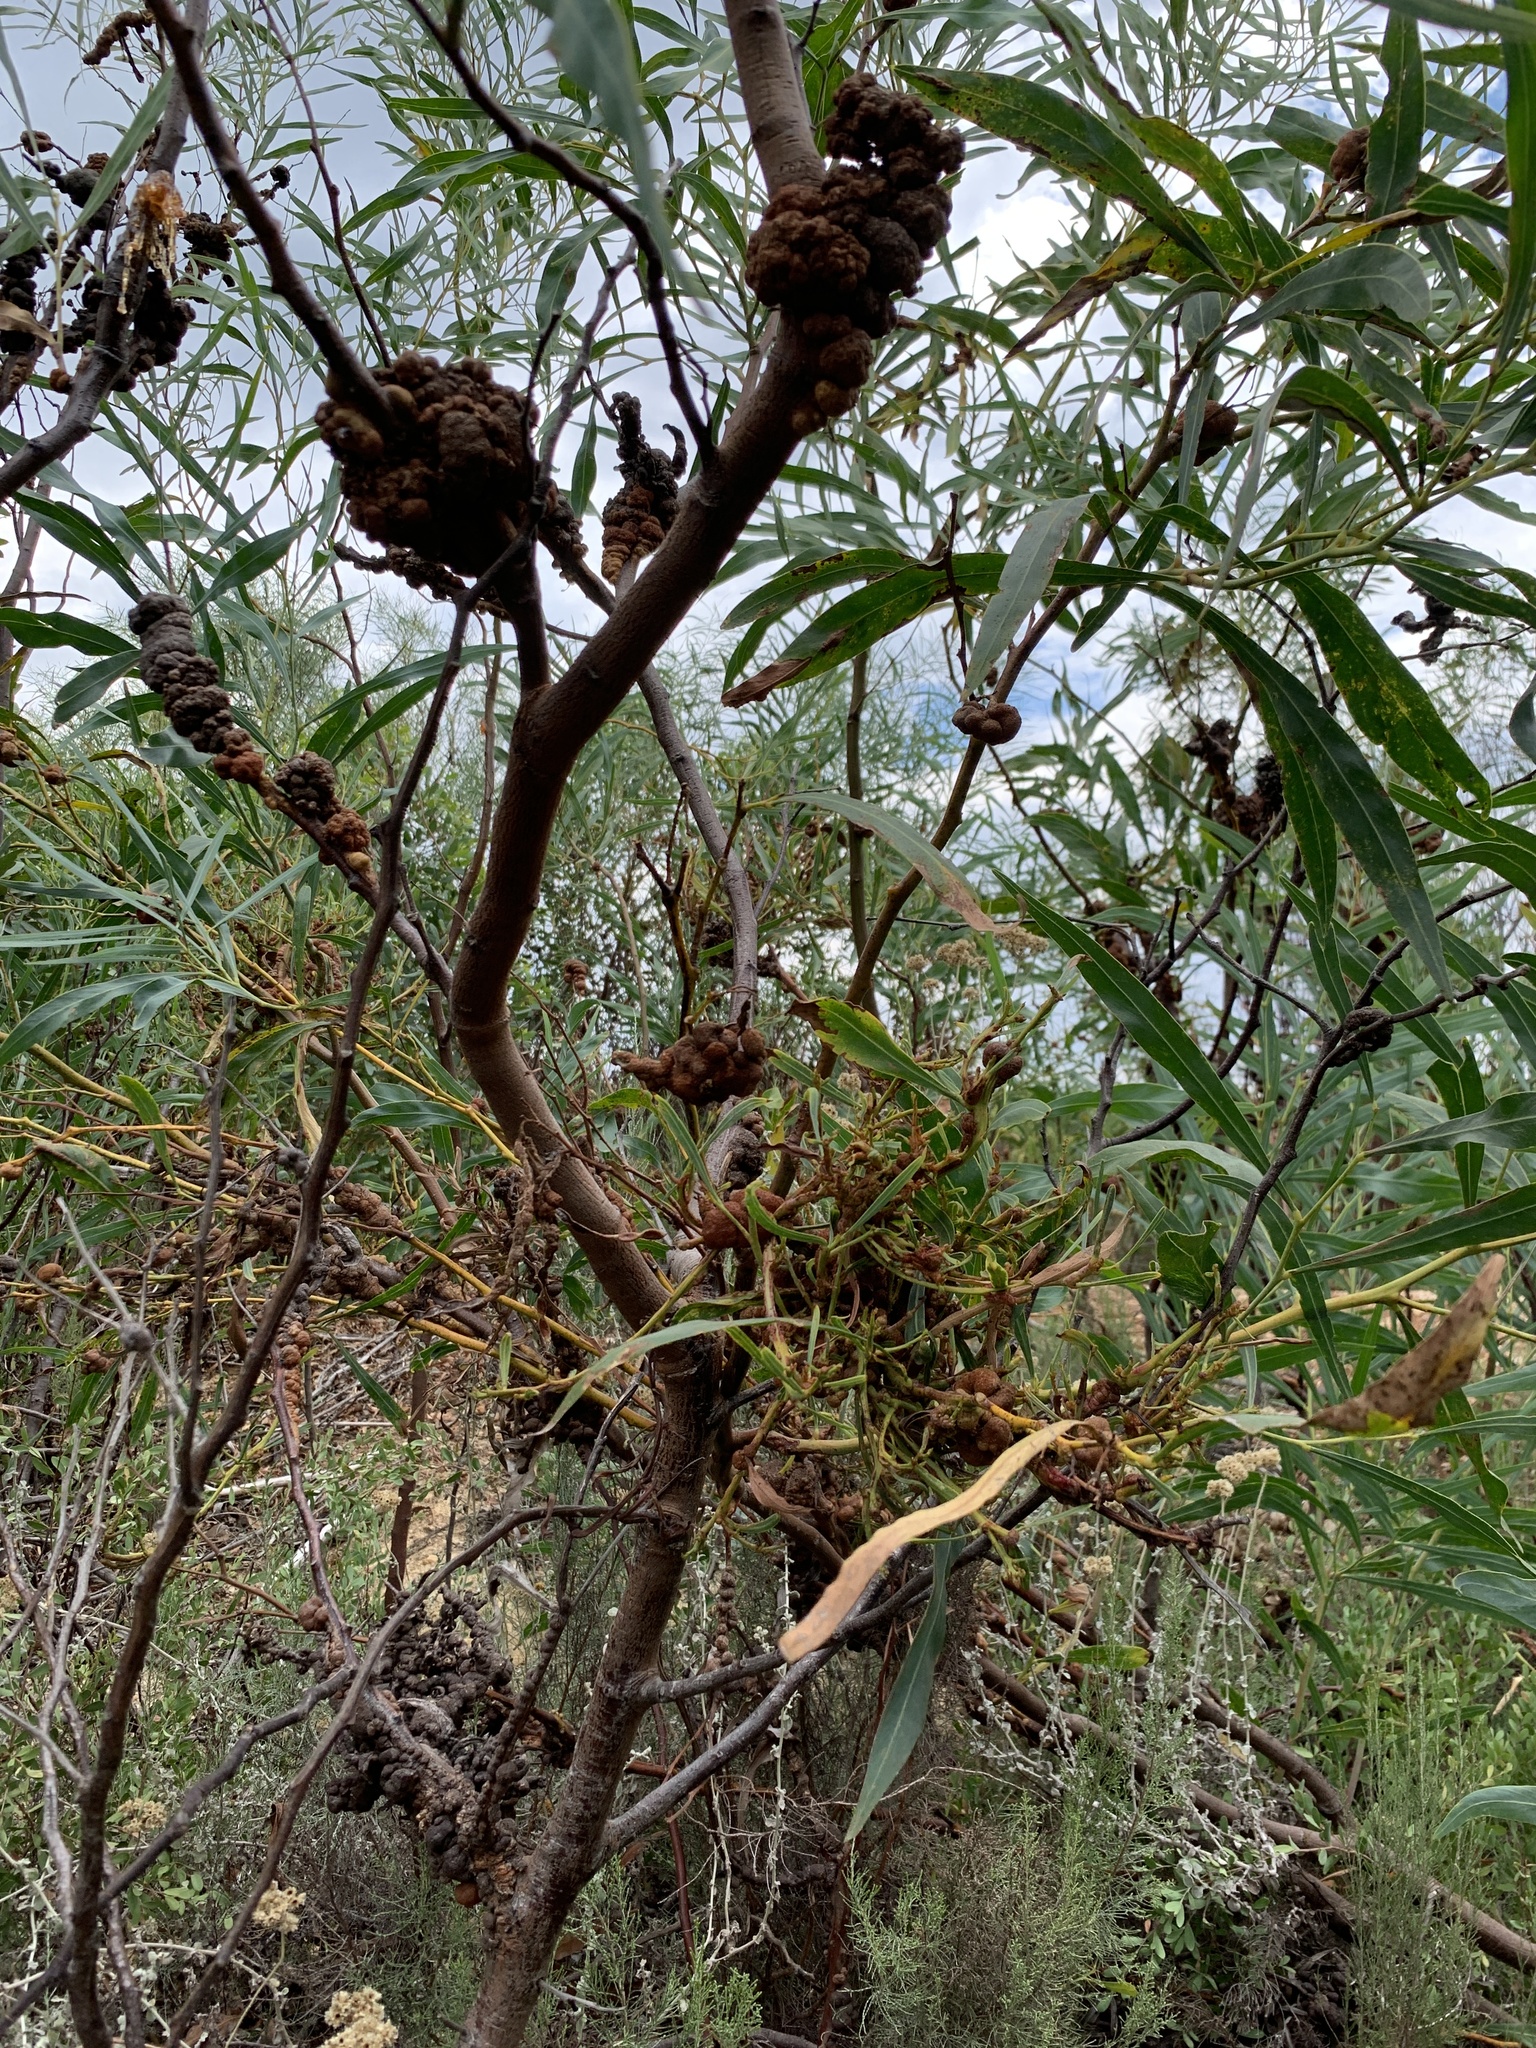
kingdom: Fungi
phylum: Basidiomycota
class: Pucciniomycetes
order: Pucciniales
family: Uromycladiaceae
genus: Uromycladium
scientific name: Uromycladium morrisii
